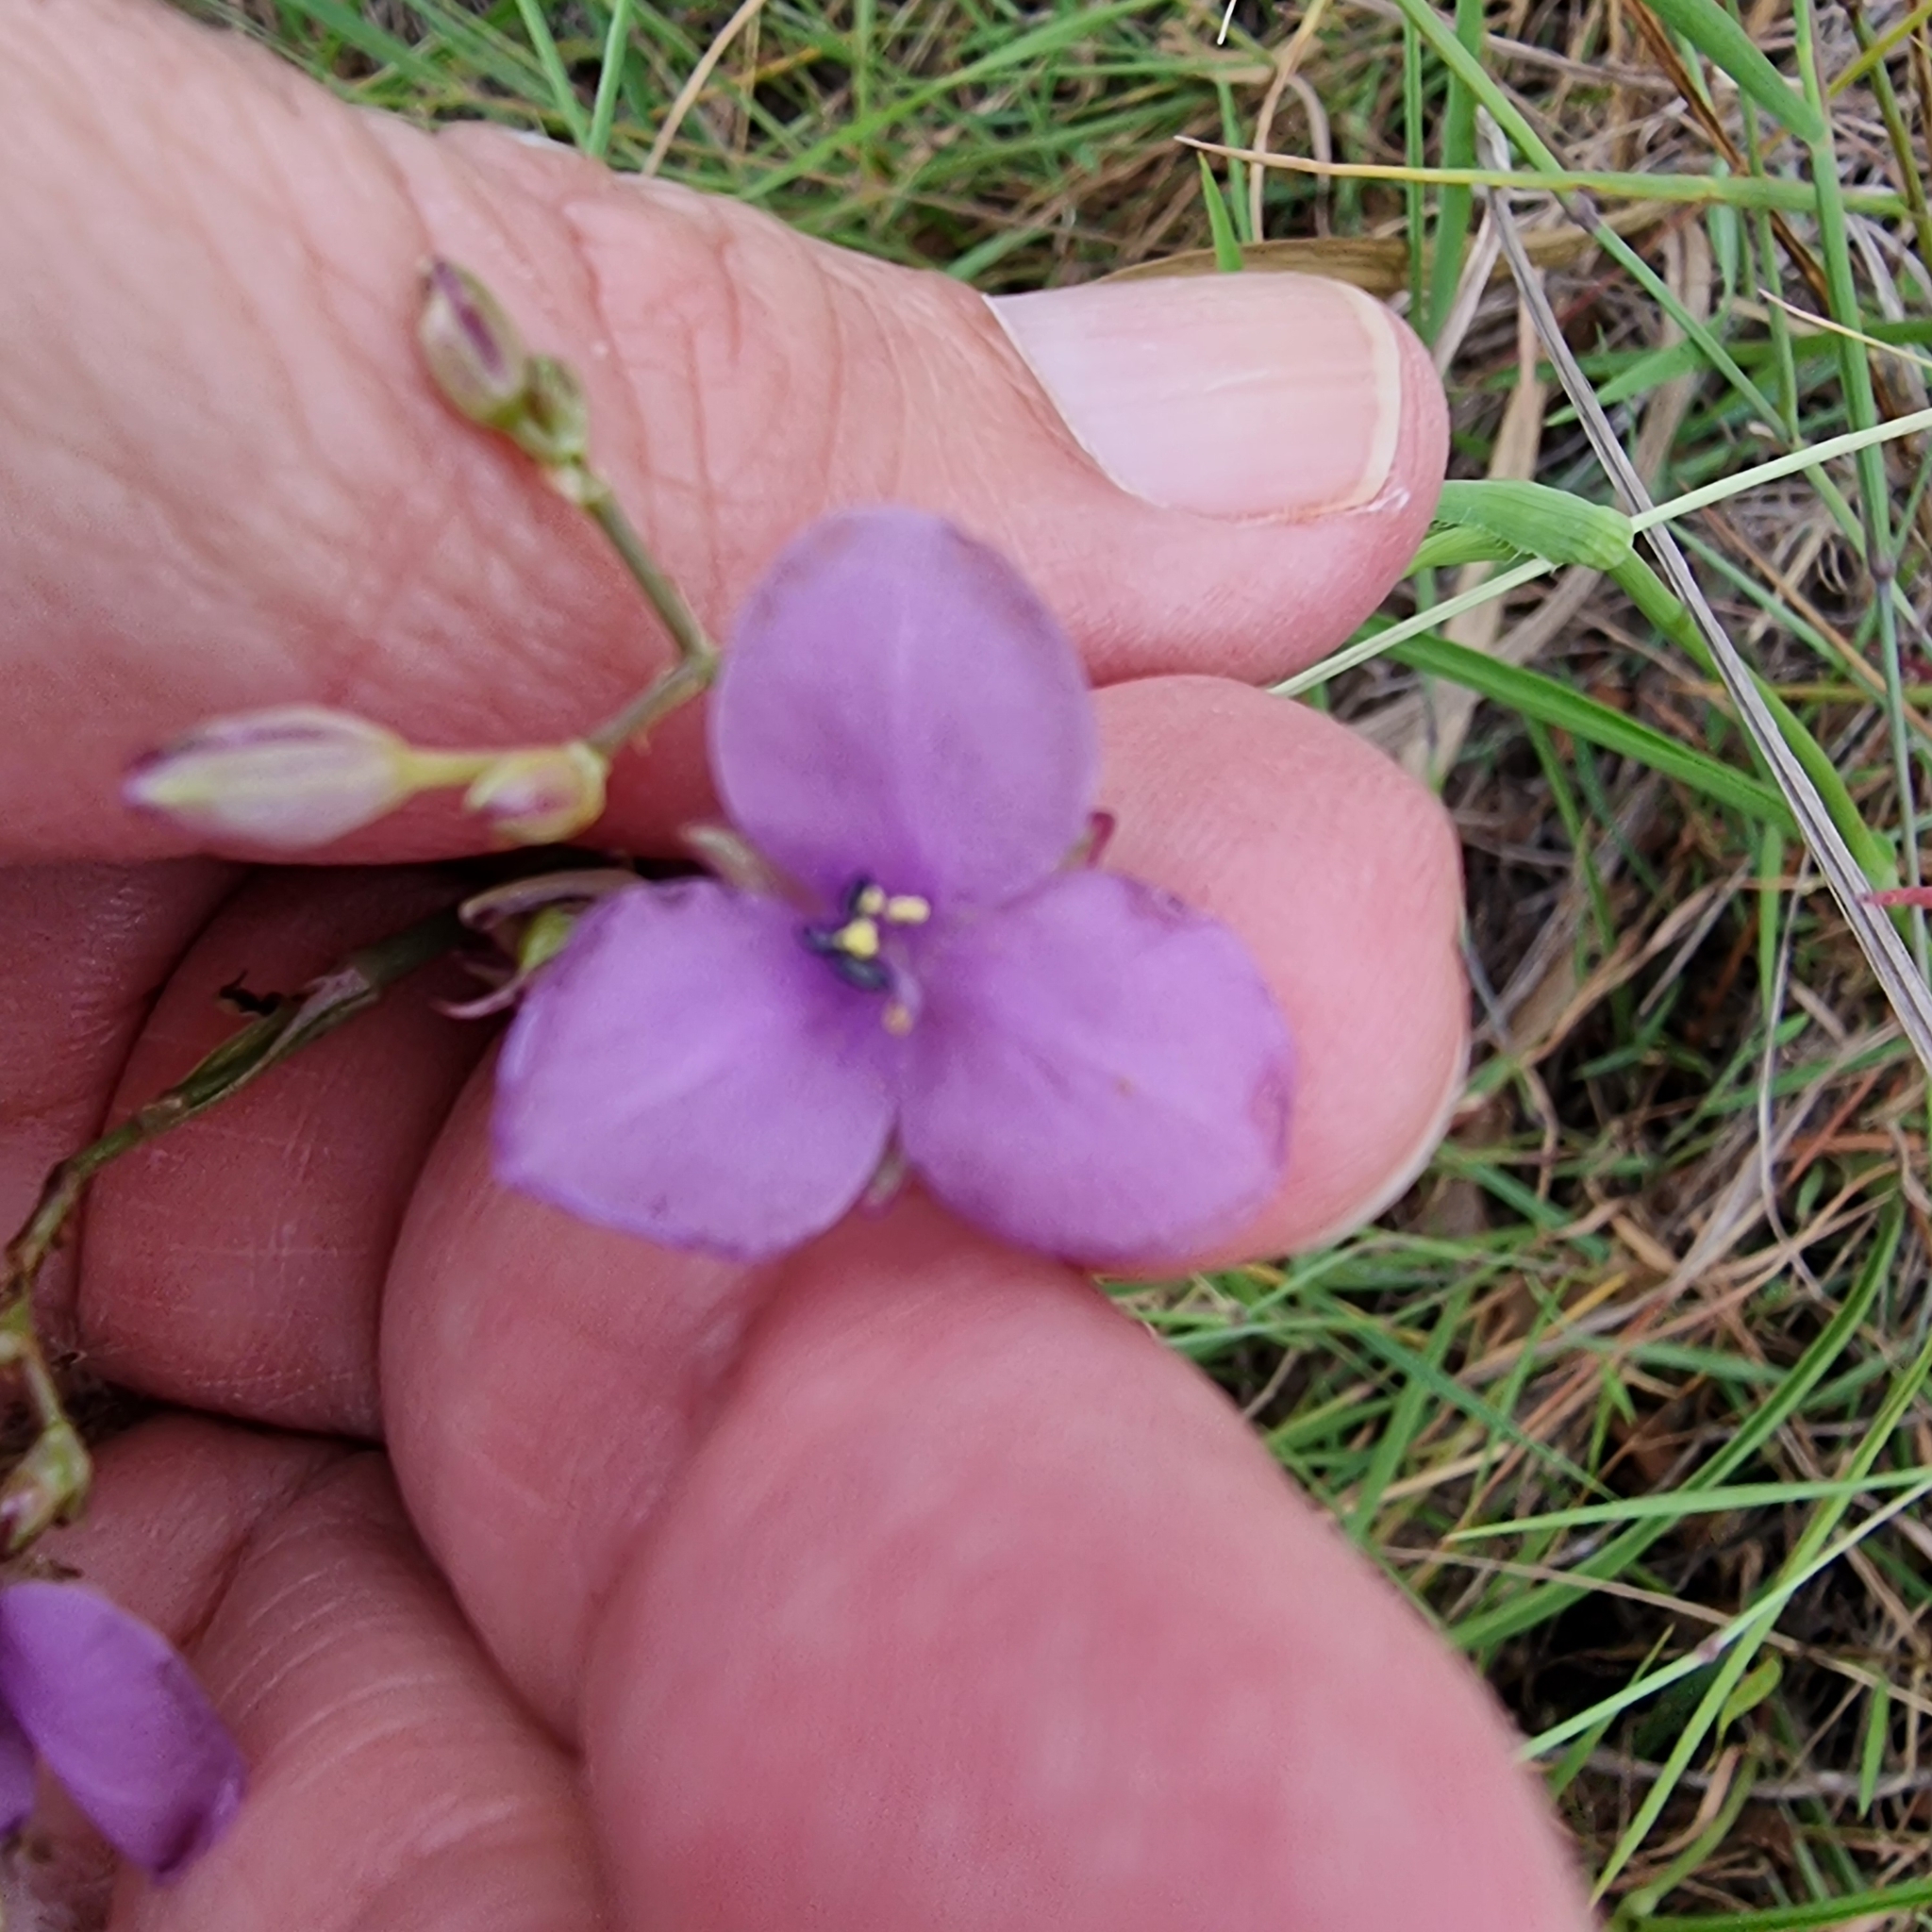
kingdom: Plantae
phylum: Tracheophyta
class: Liliopsida
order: Commelinales
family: Commelinaceae
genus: Murdannia
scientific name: Murdannia graminea
